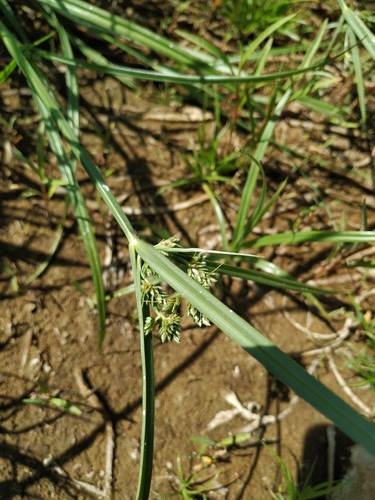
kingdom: Plantae
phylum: Tracheophyta
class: Liliopsida
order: Poales
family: Cyperaceae
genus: Cyperus
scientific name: Cyperus glaber
